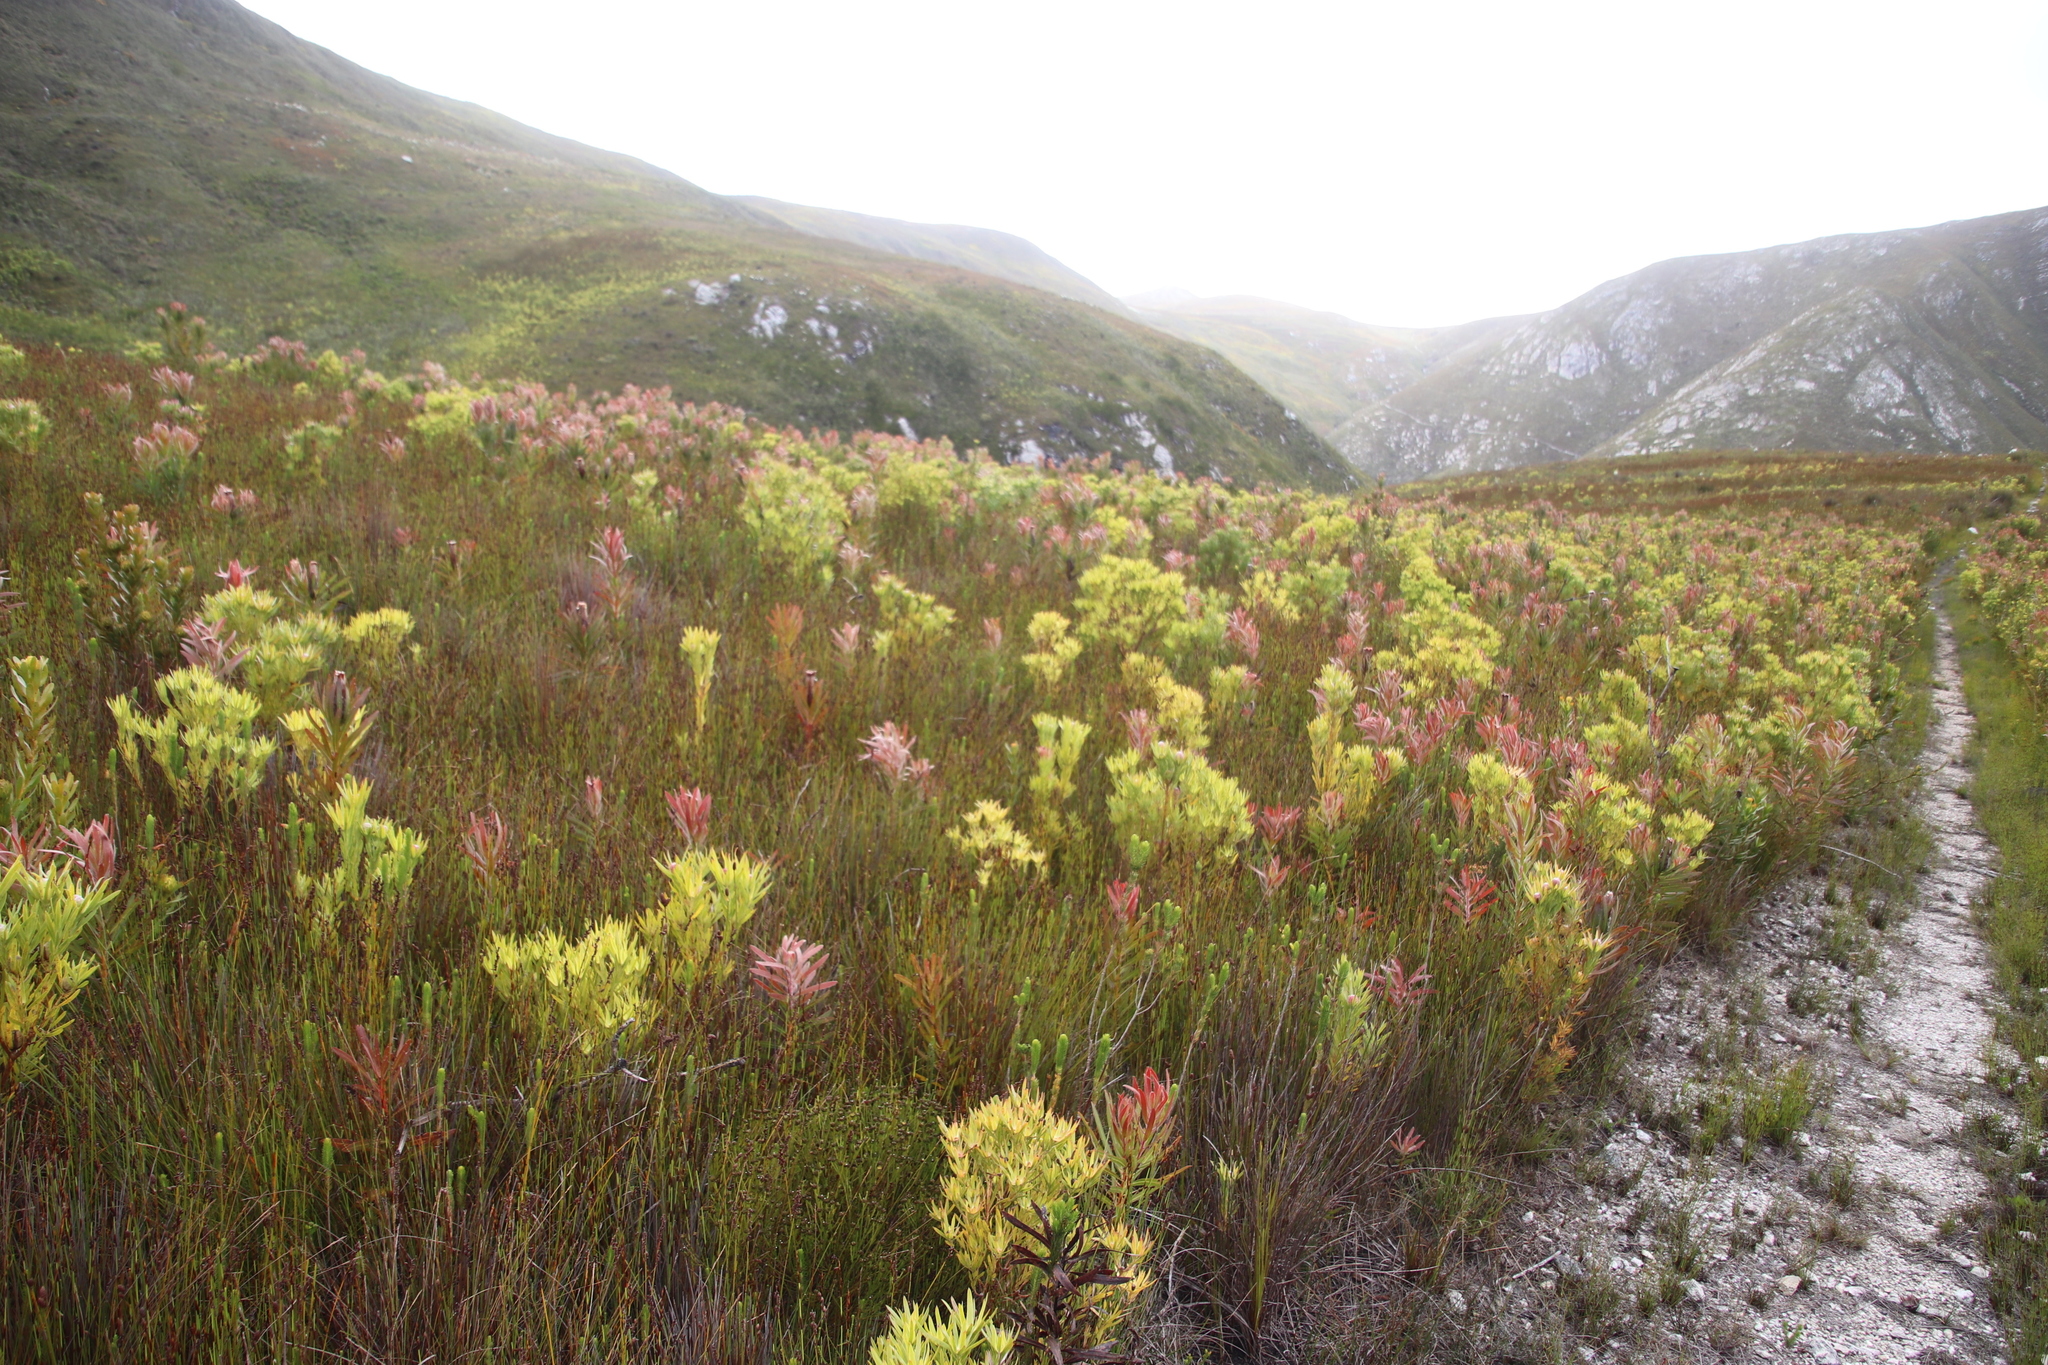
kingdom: Plantae
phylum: Tracheophyta
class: Magnoliopsida
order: Proteales
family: Proteaceae
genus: Leucadendron
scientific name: Leucadendron xanthoconus
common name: Sickle-leaf conebush
